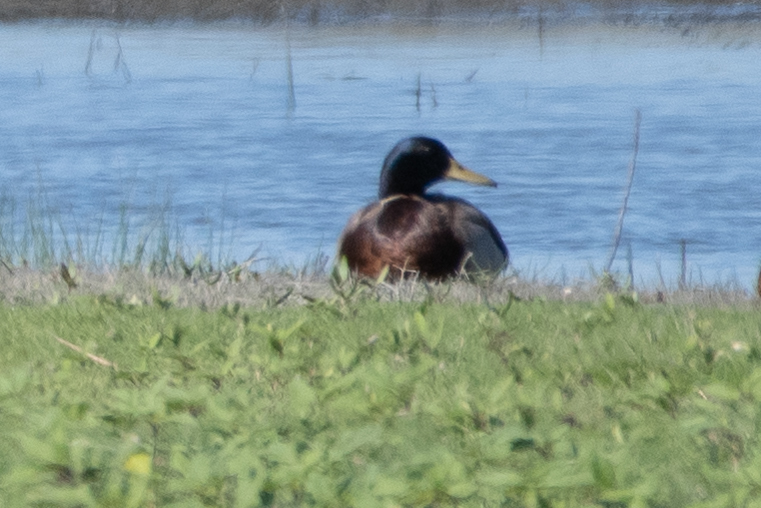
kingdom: Animalia
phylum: Chordata
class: Aves
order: Anseriformes
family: Anatidae
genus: Anas
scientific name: Anas platyrhynchos
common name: Mallard
